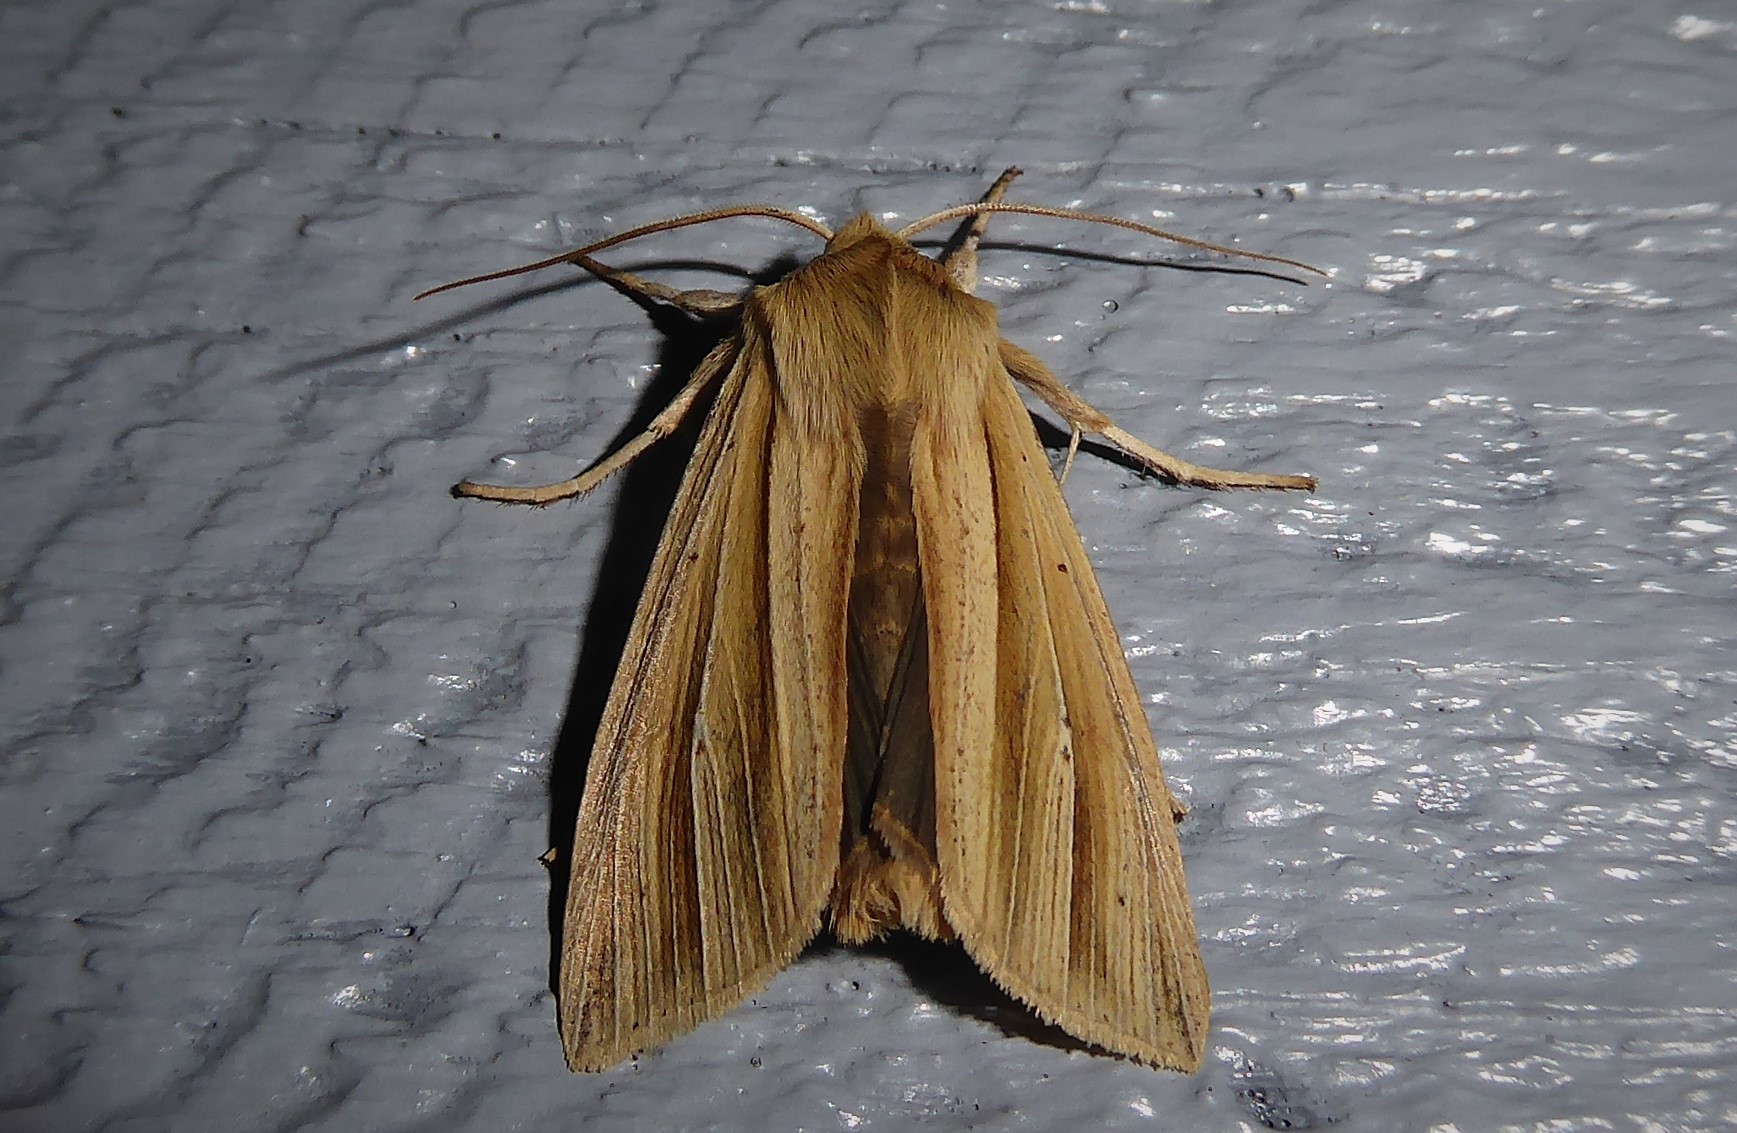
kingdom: Animalia
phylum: Arthropoda
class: Insecta
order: Lepidoptera
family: Noctuidae
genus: Ichneutica
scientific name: Ichneutica sulcana
